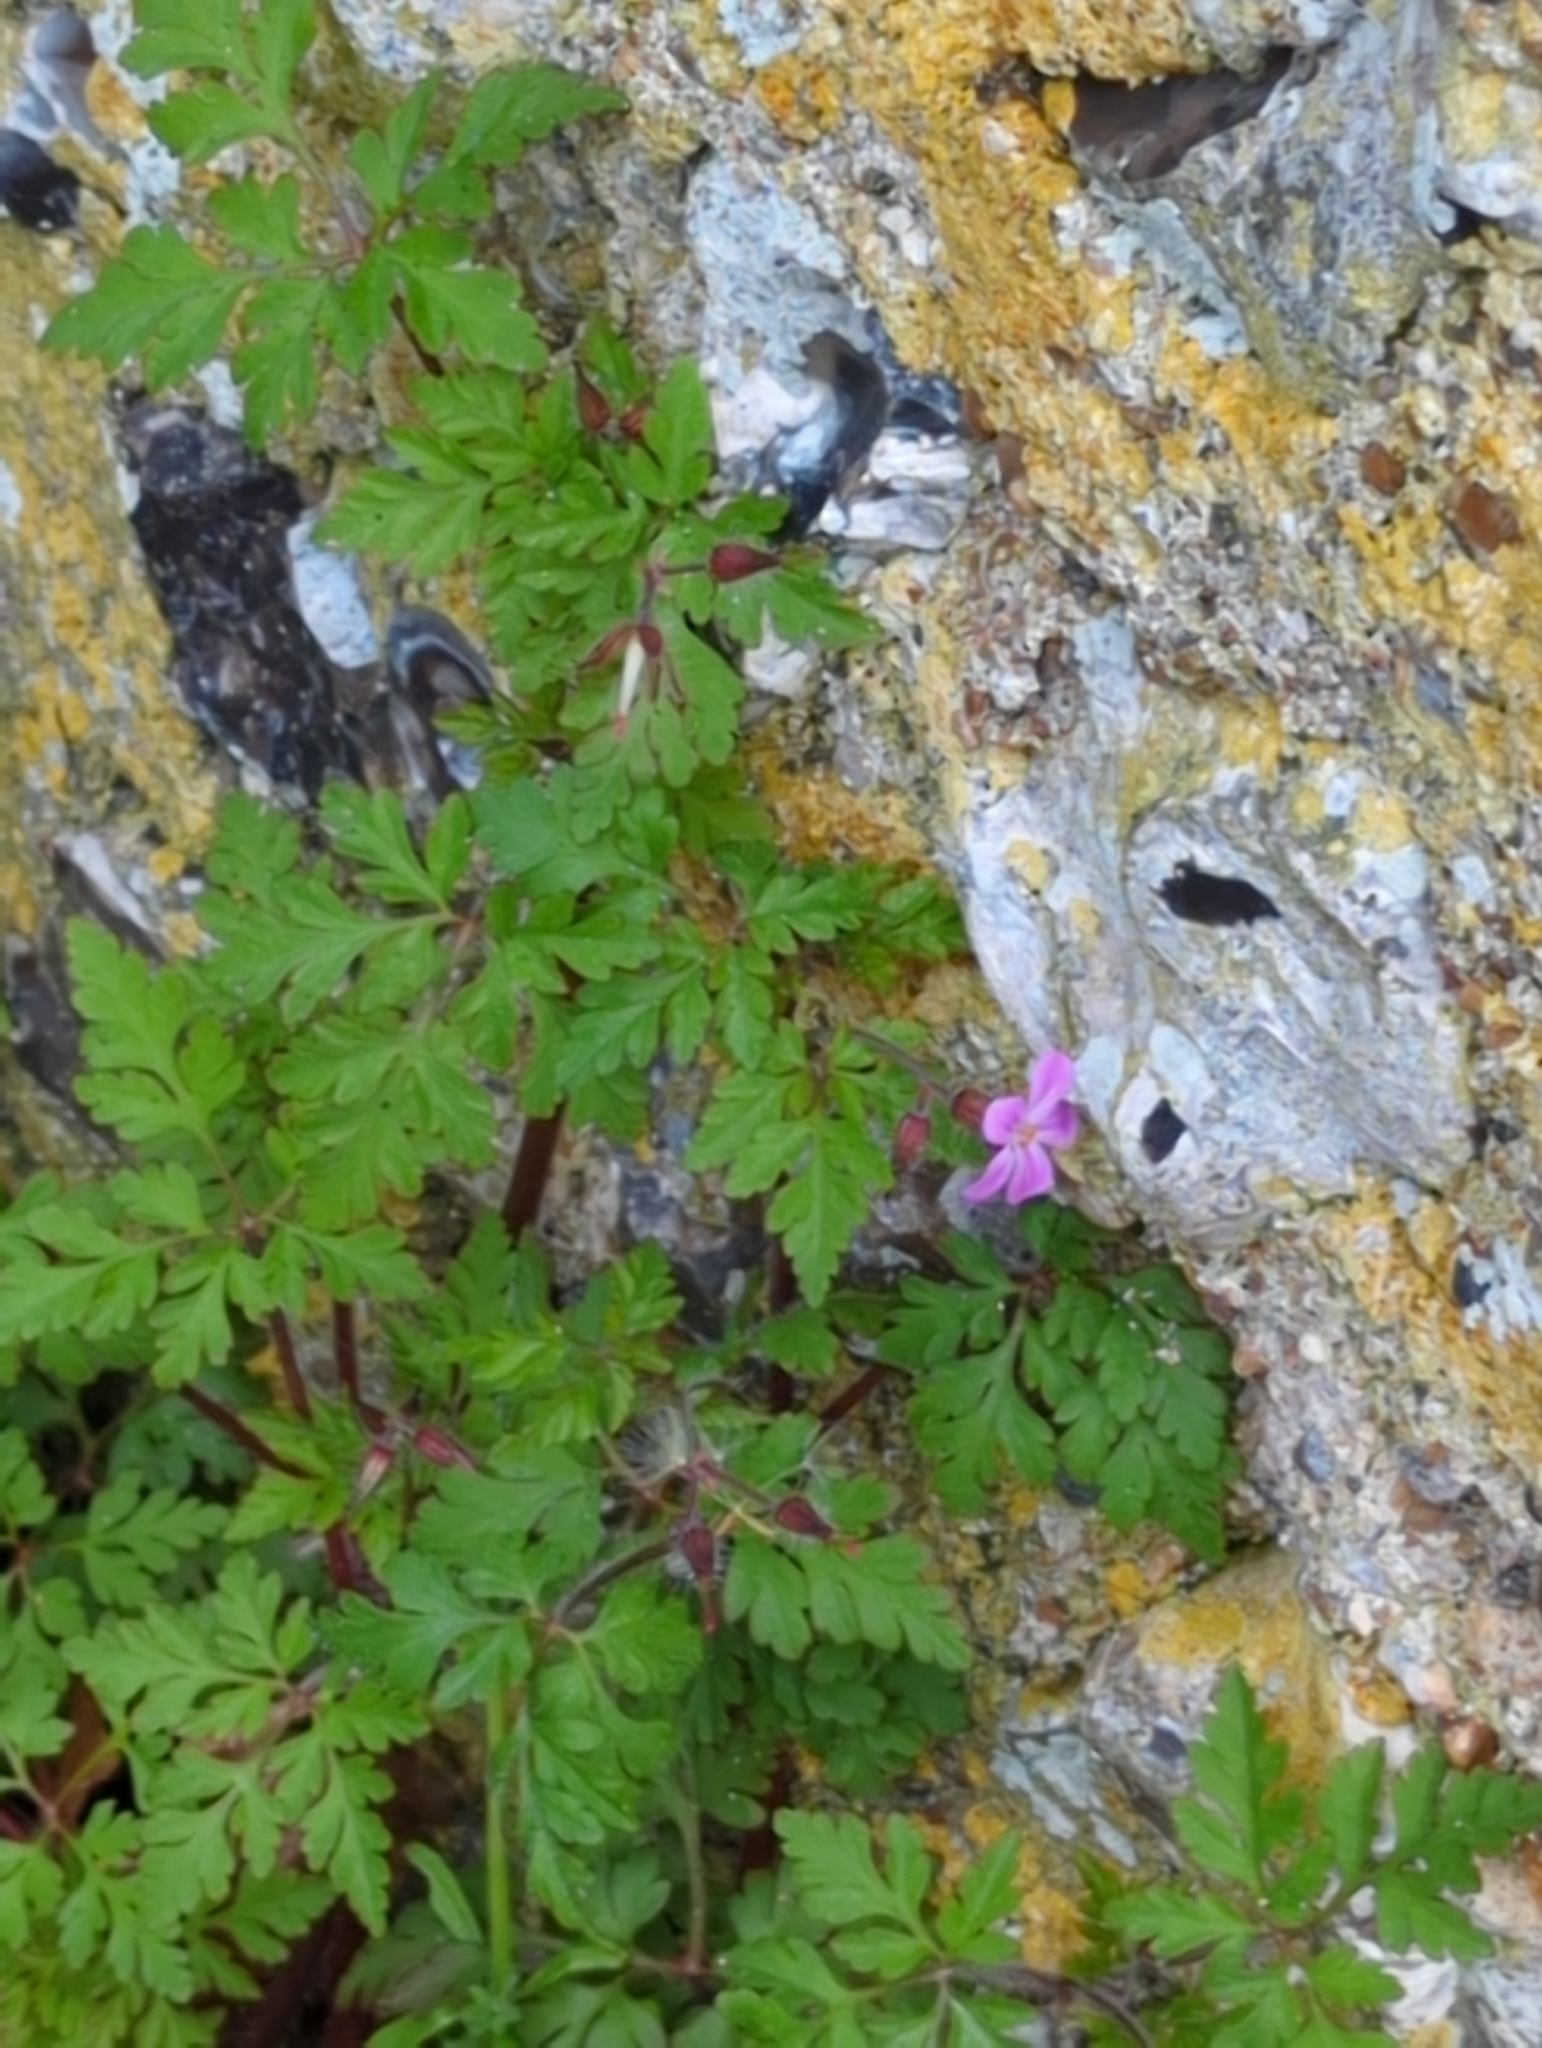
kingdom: Plantae
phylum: Tracheophyta
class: Magnoliopsida
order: Geraniales
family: Geraniaceae
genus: Geranium
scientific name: Geranium robertianum
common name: Herb-robert
